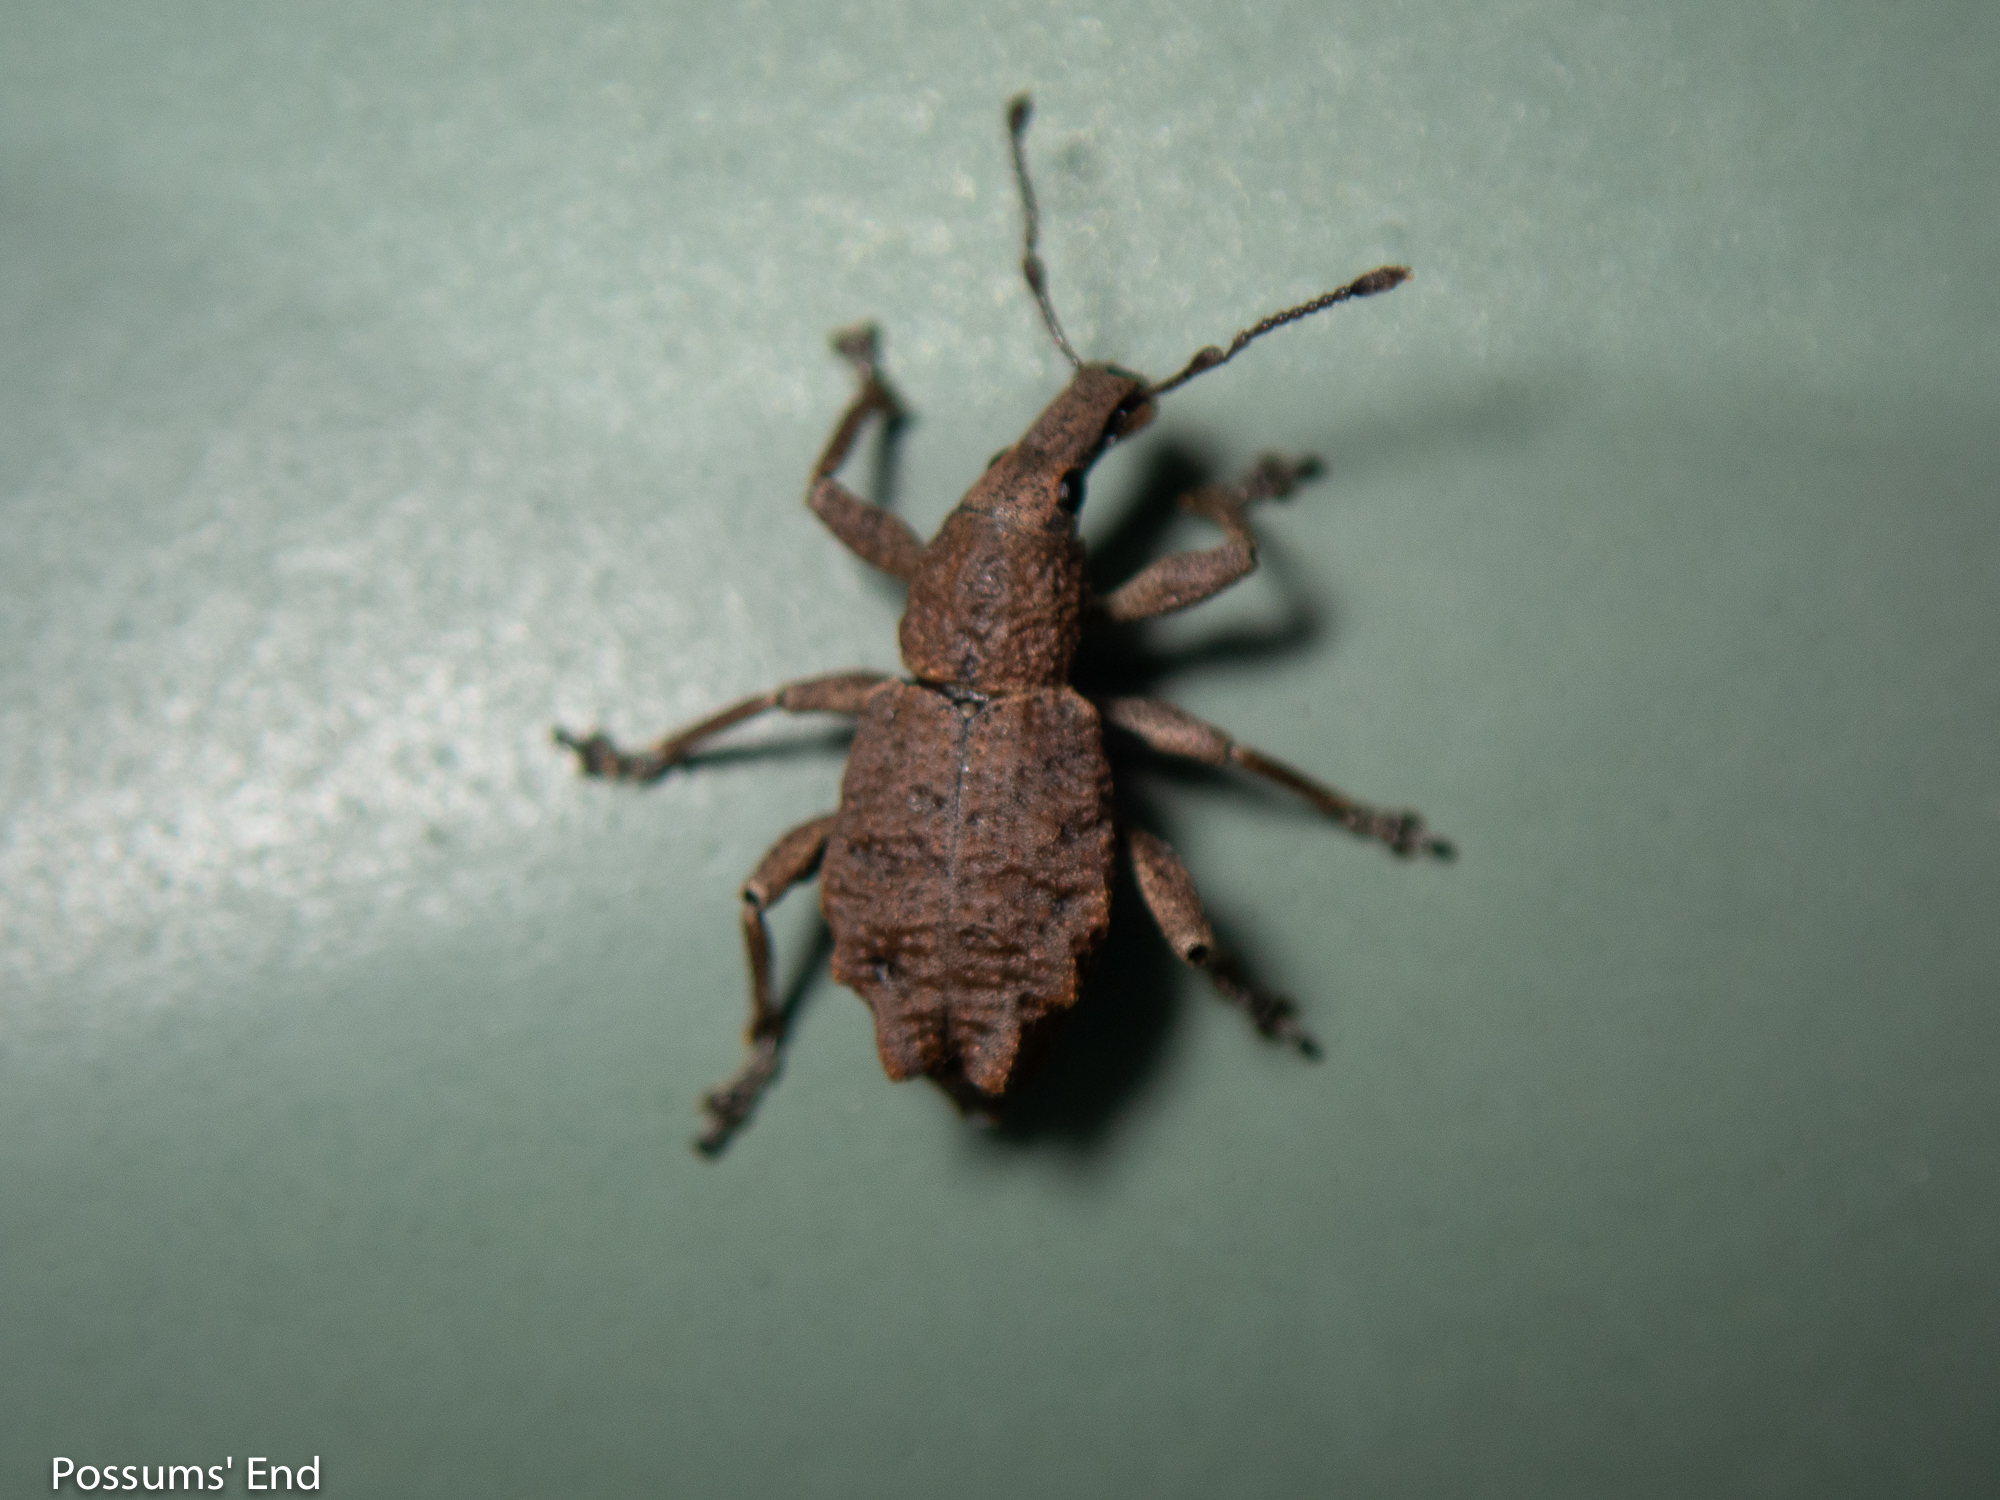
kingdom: Animalia
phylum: Arthropoda
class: Insecta
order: Coleoptera
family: Curculionidae
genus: Catoptes
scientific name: Catoptes censorius
